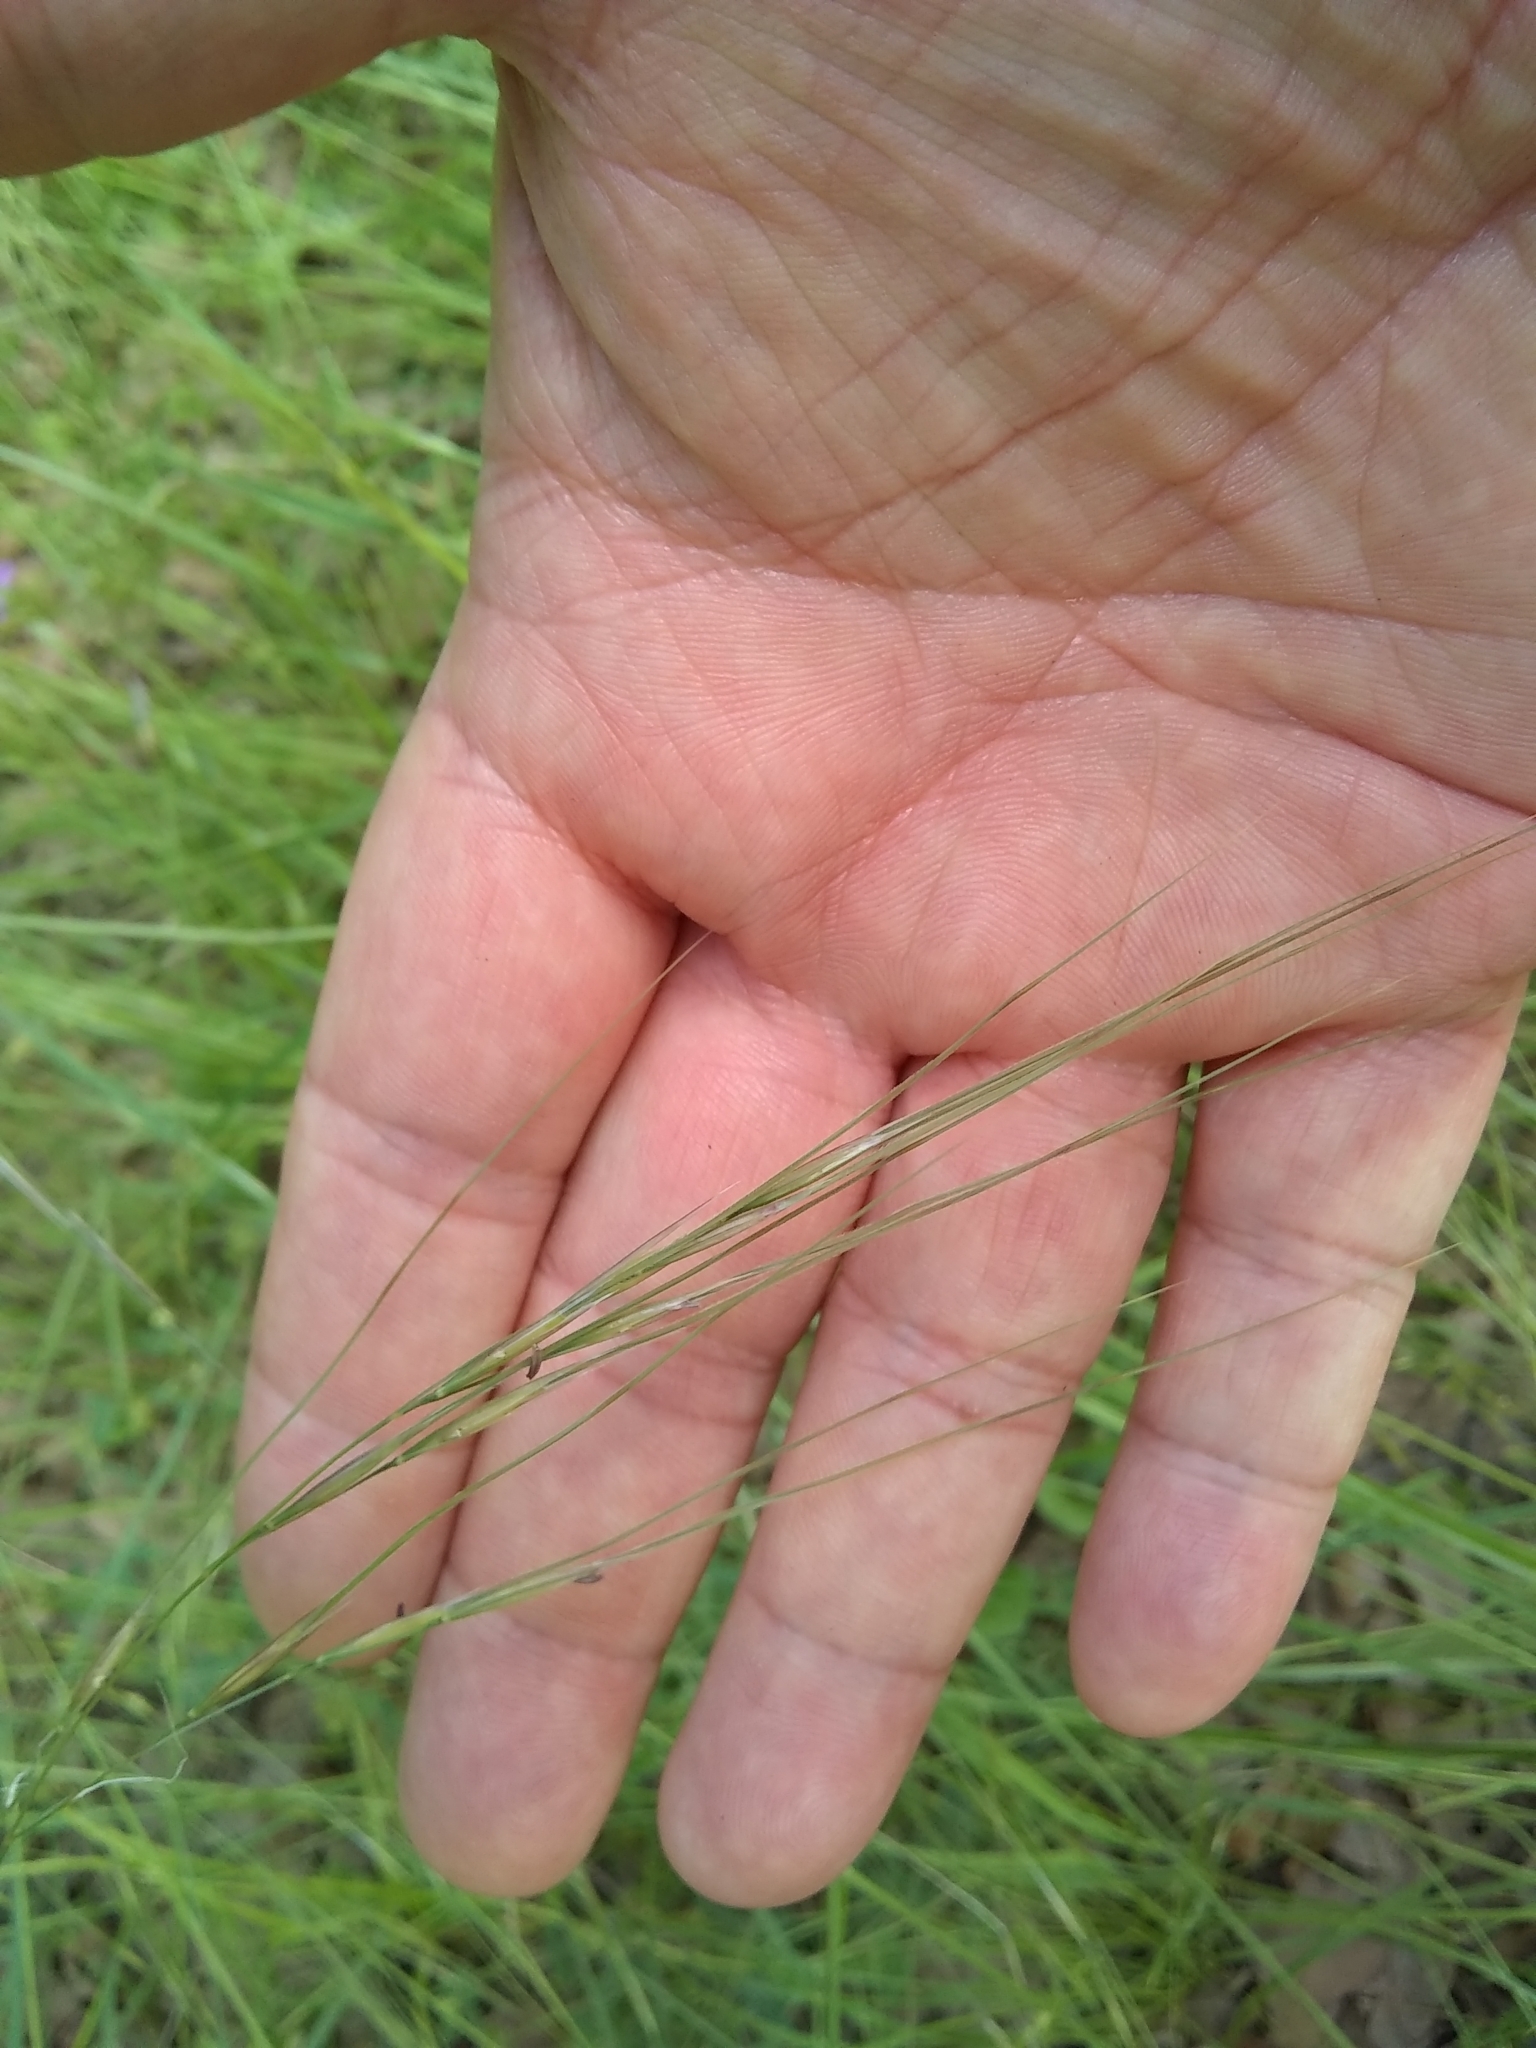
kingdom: Plantae
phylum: Tracheophyta
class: Liliopsida
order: Poales
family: Poaceae
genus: Nassella
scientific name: Nassella leucotricha
